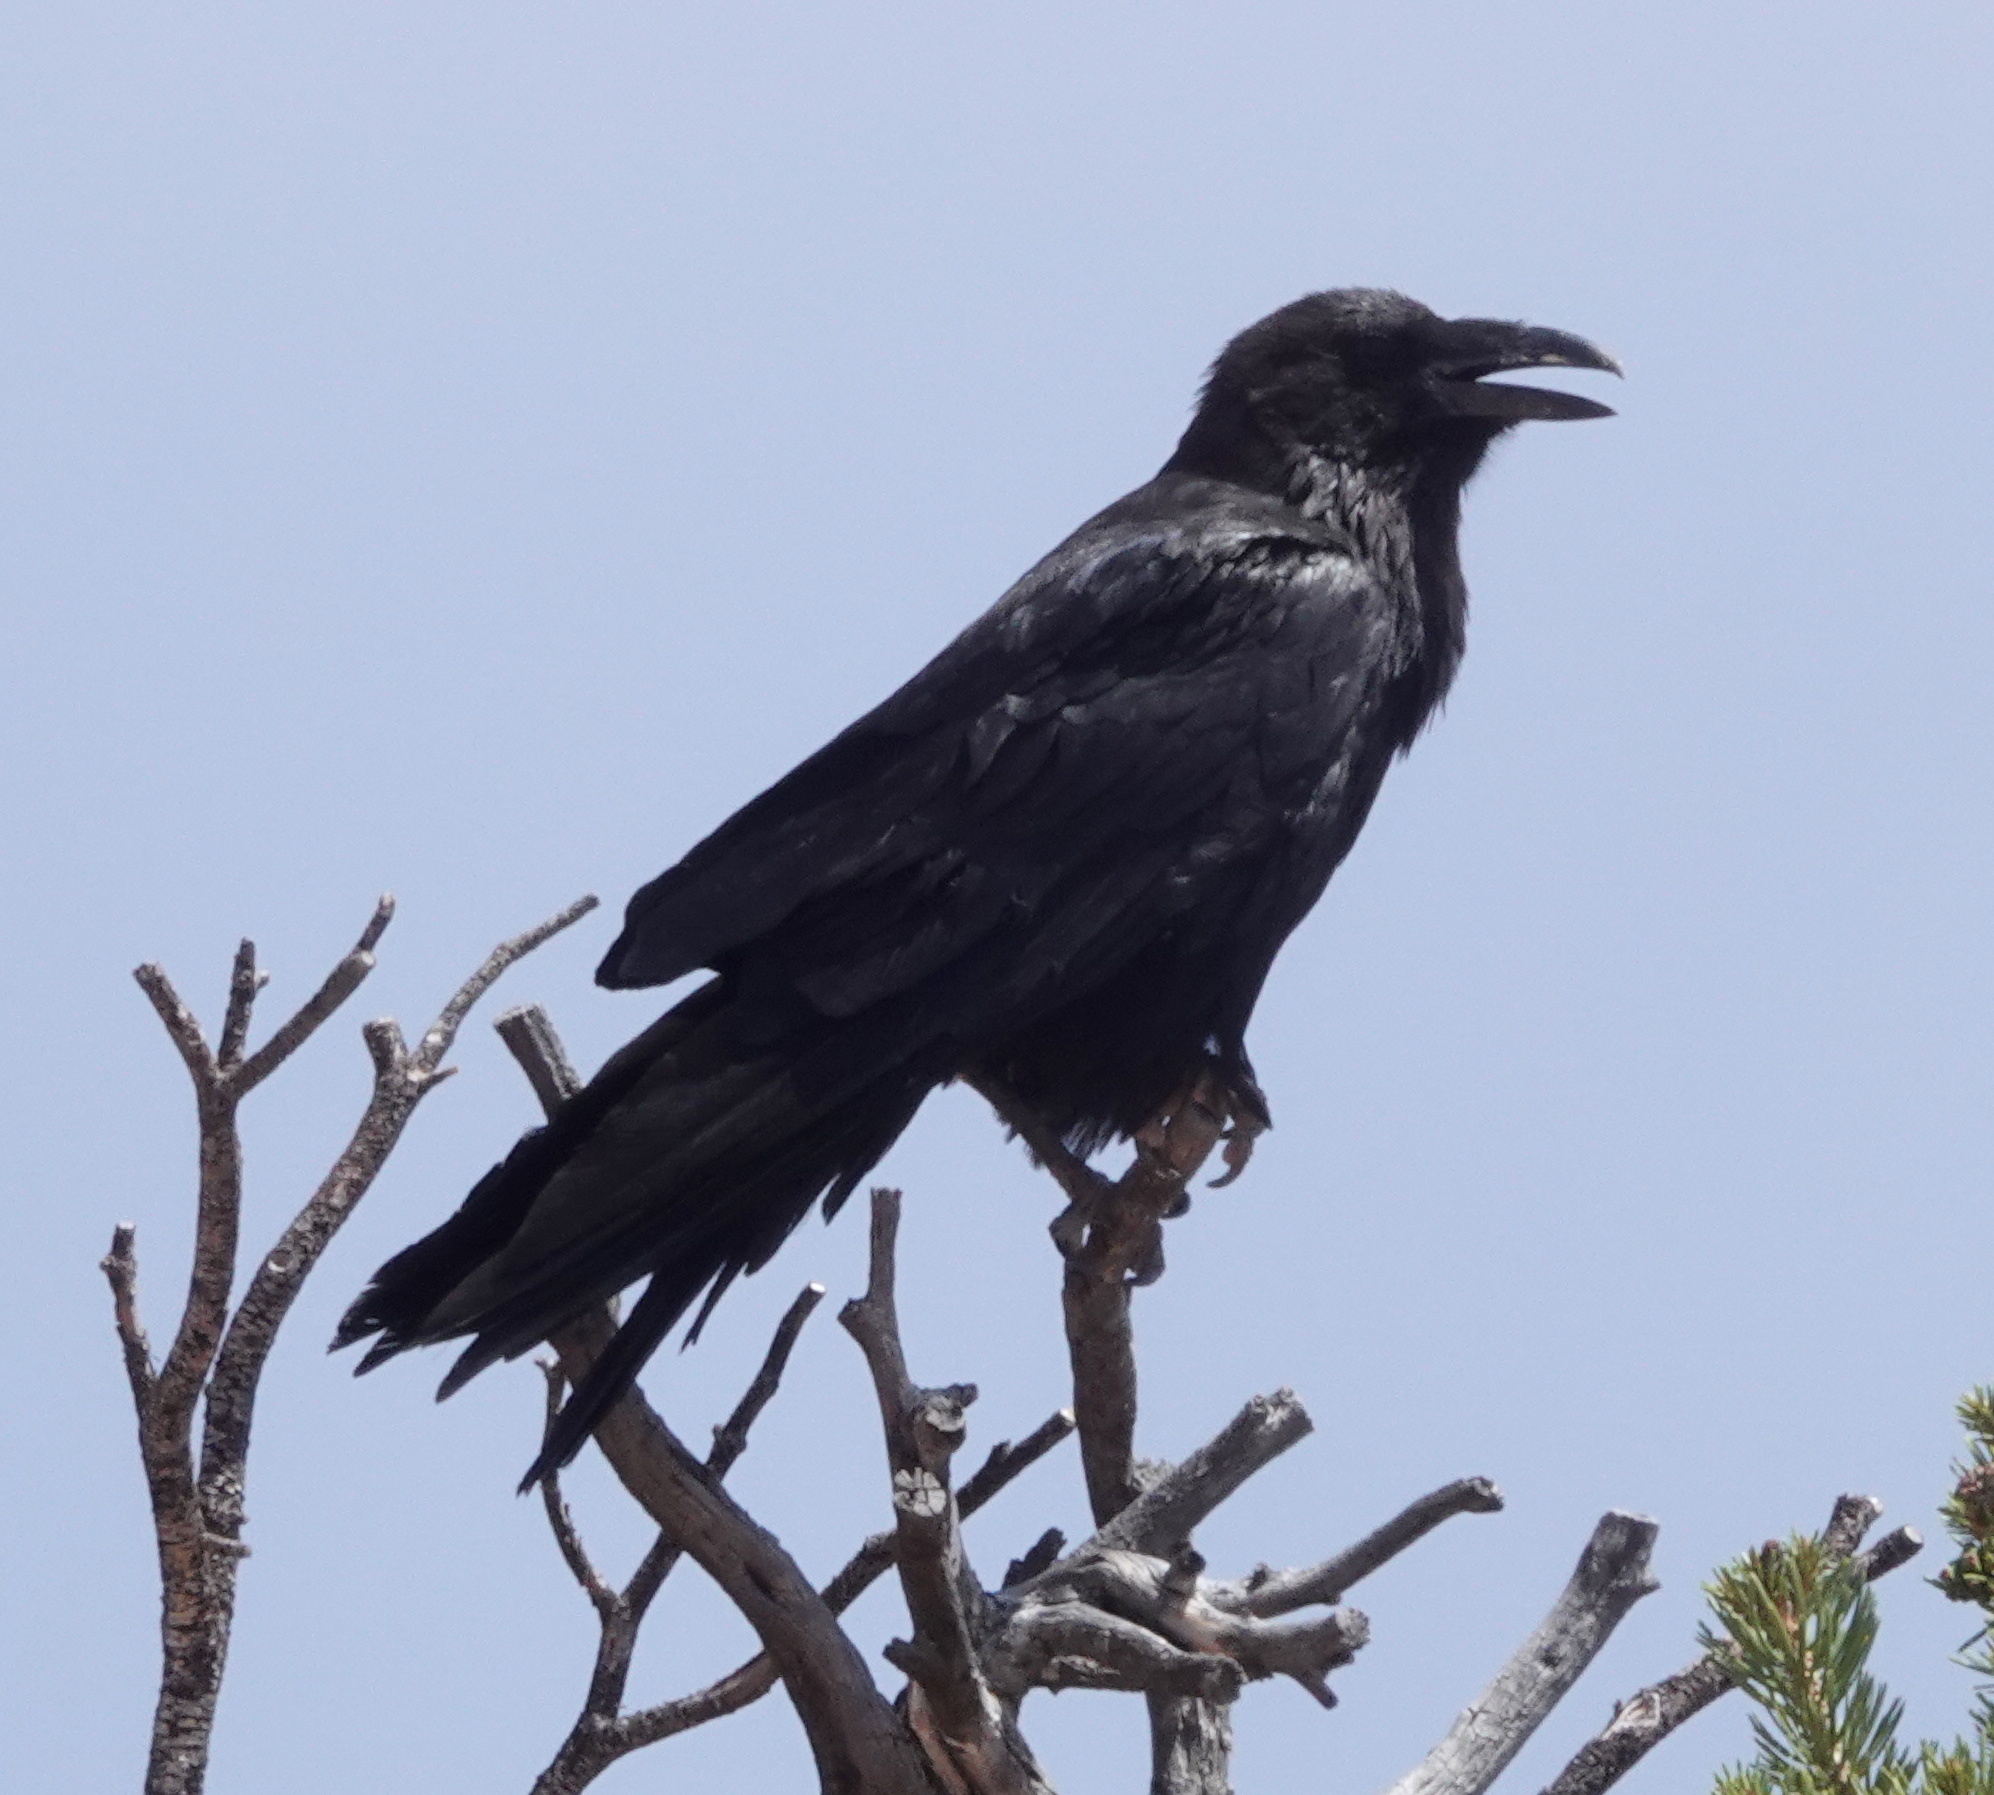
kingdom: Animalia
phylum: Chordata
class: Aves
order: Passeriformes
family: Corvidae
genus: Corvus
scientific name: Corvus corax
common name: Common raven
